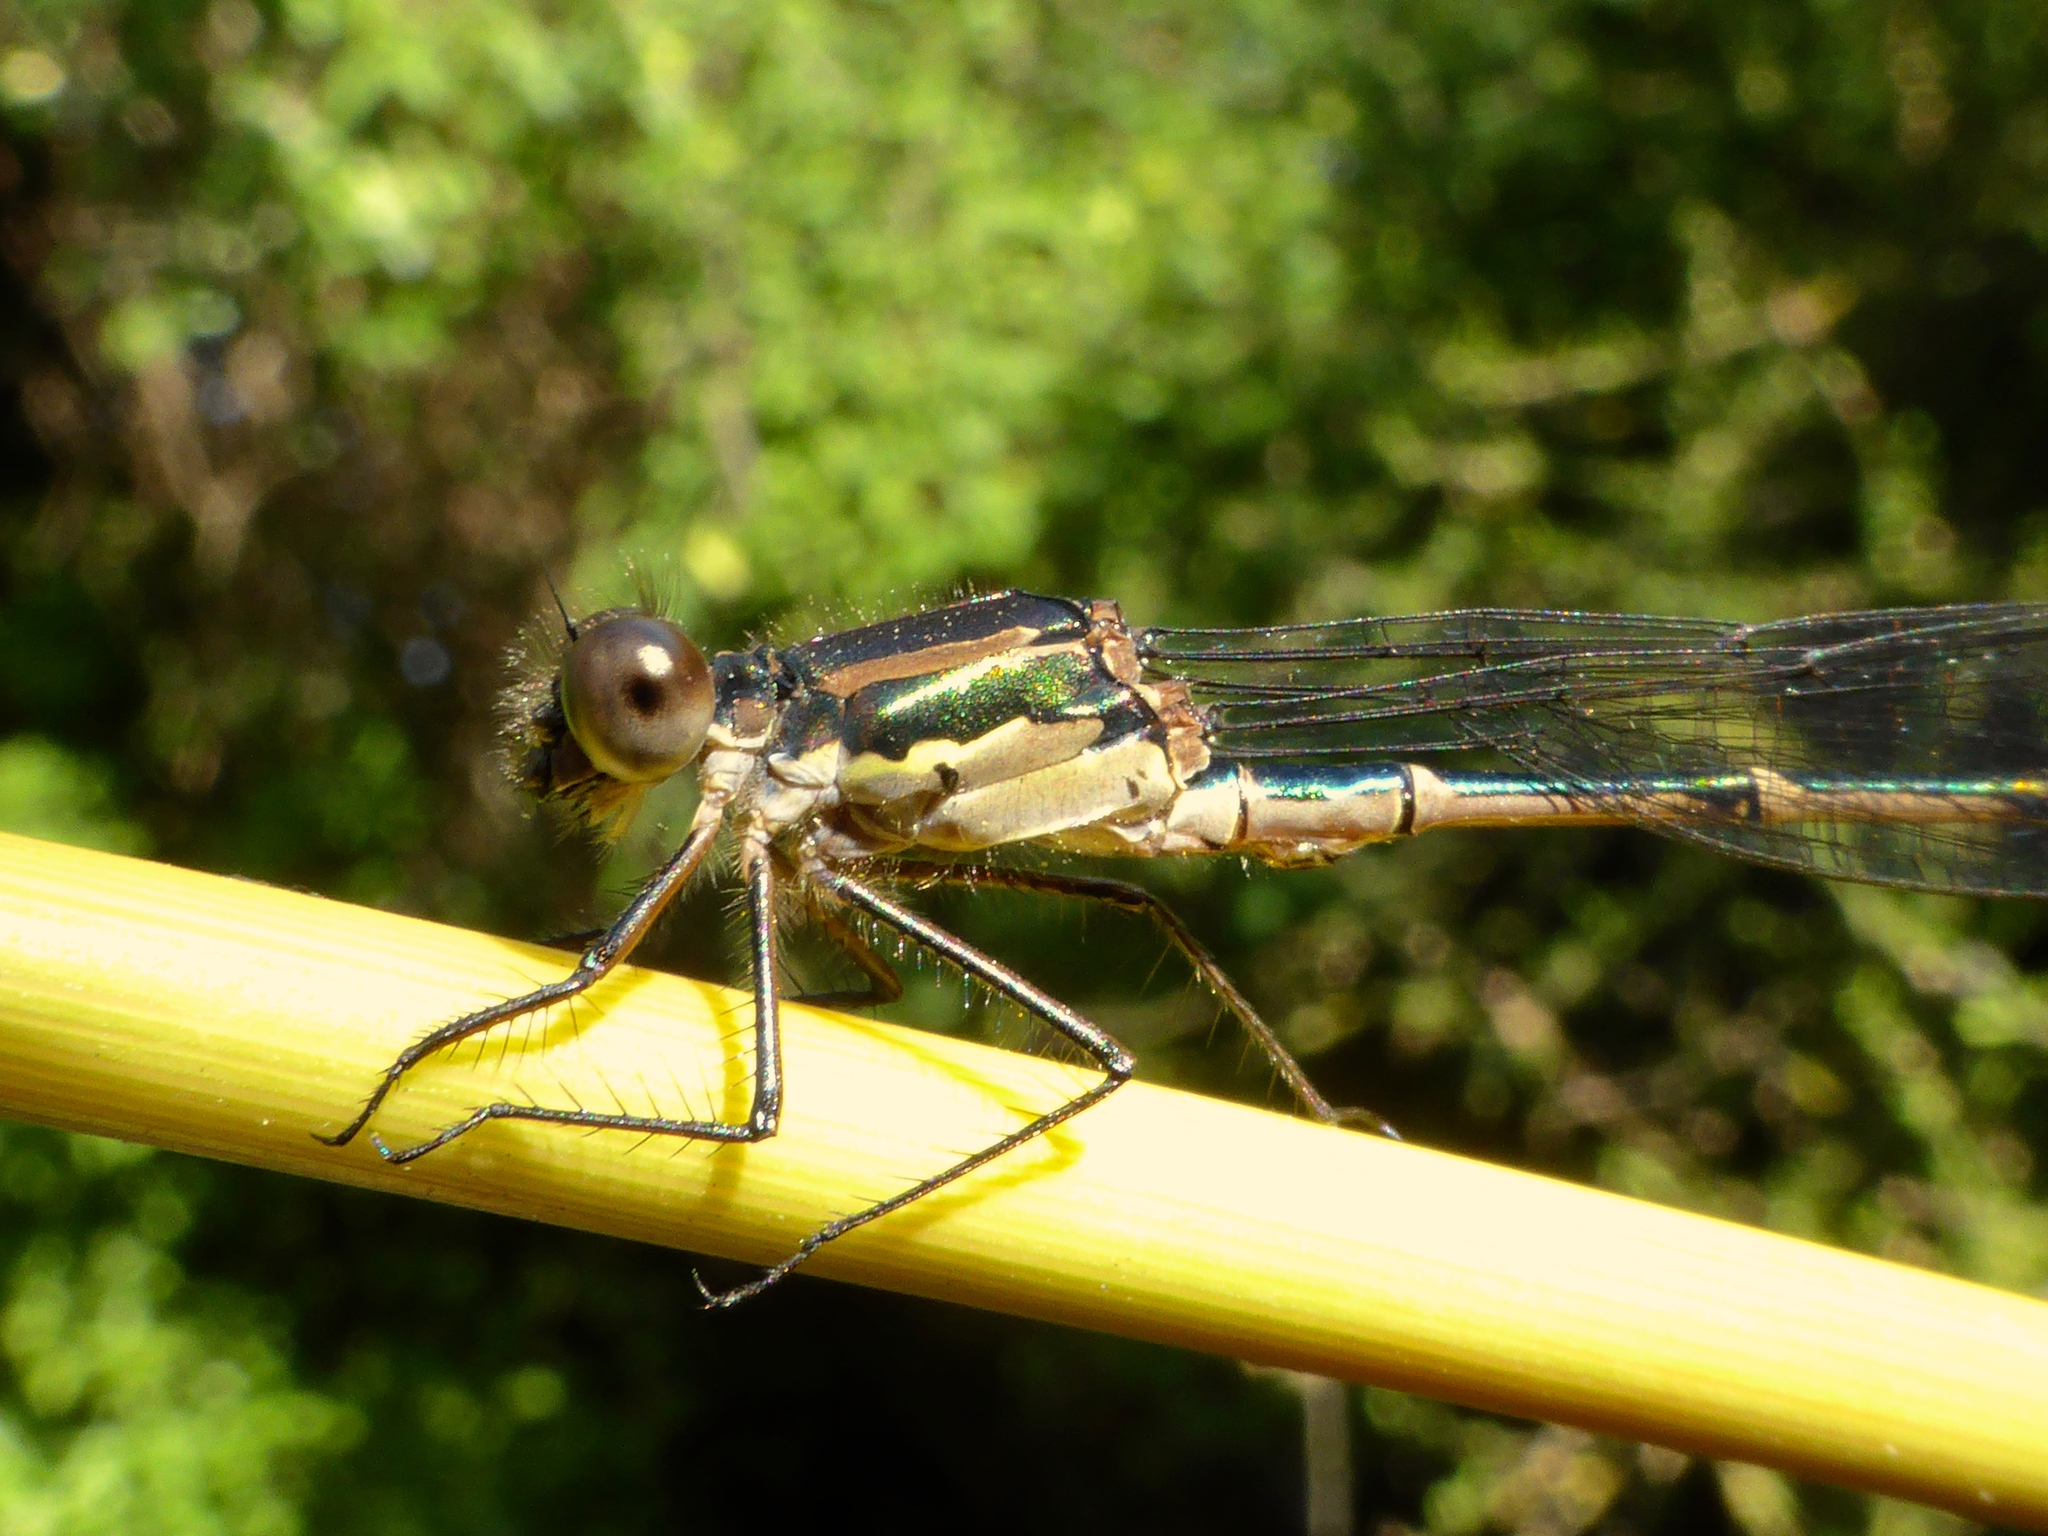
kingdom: Animalia
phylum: Arthropoda
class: Insecta
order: Odonata
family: Lestidae
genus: Austrolestes
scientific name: Austrolestes colensonis
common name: Blue damselfly
